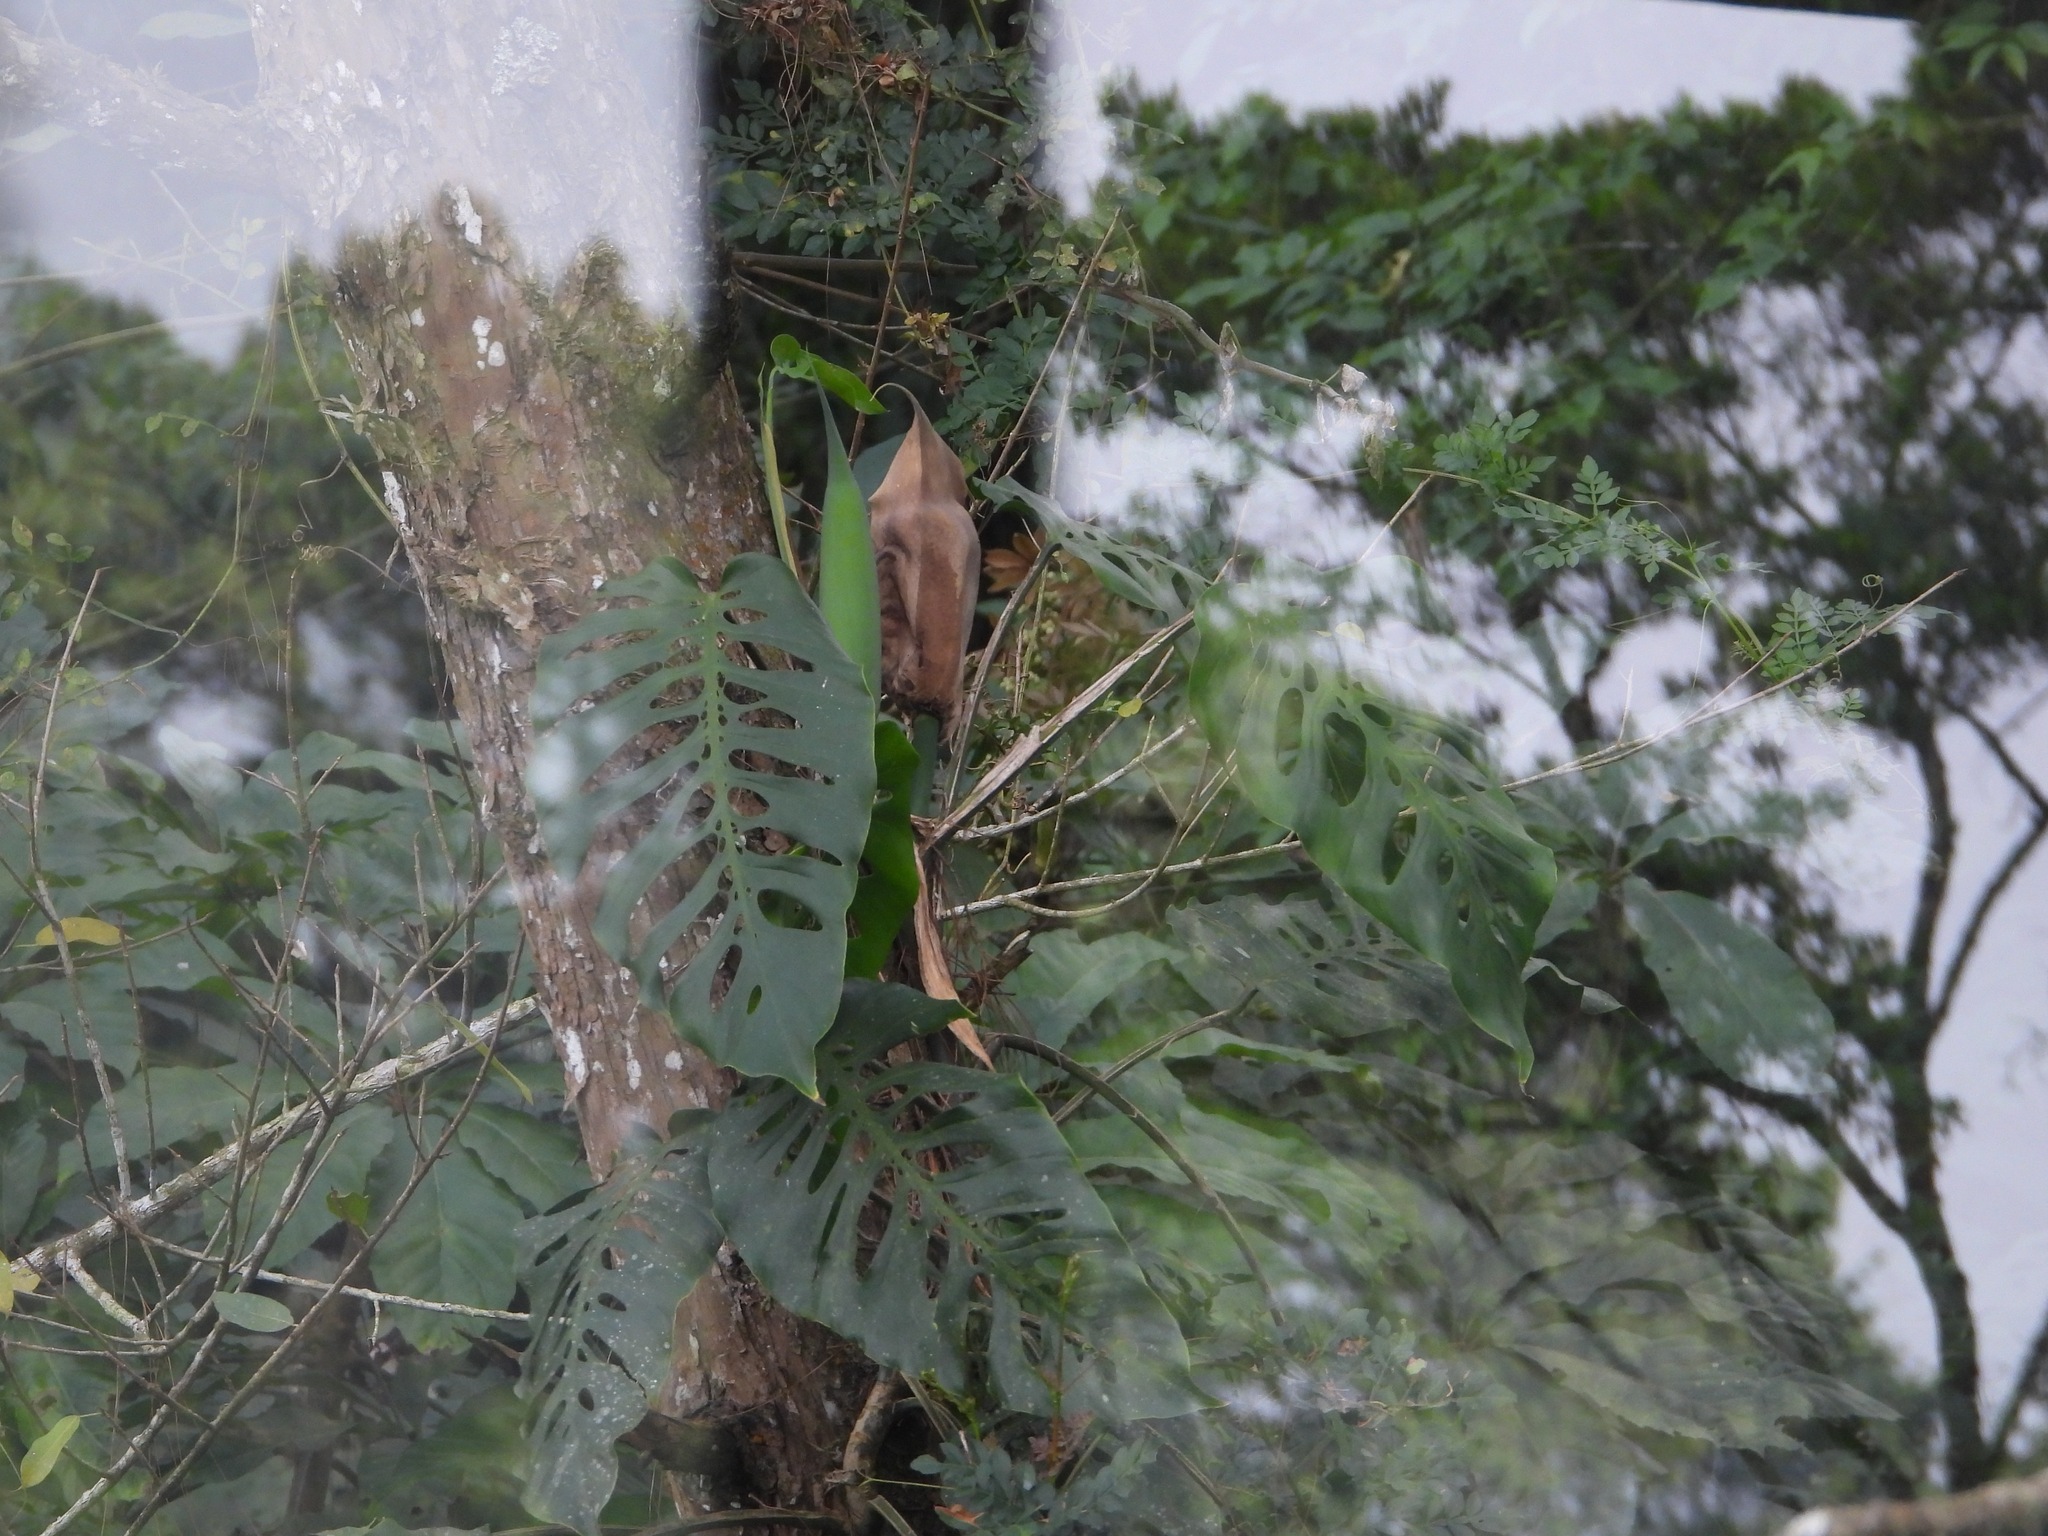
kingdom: Plantae
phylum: Tracheophyta
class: Liliopsida
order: Alismatales
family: Araceae
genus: Monstera
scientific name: Monstera siltepecana
